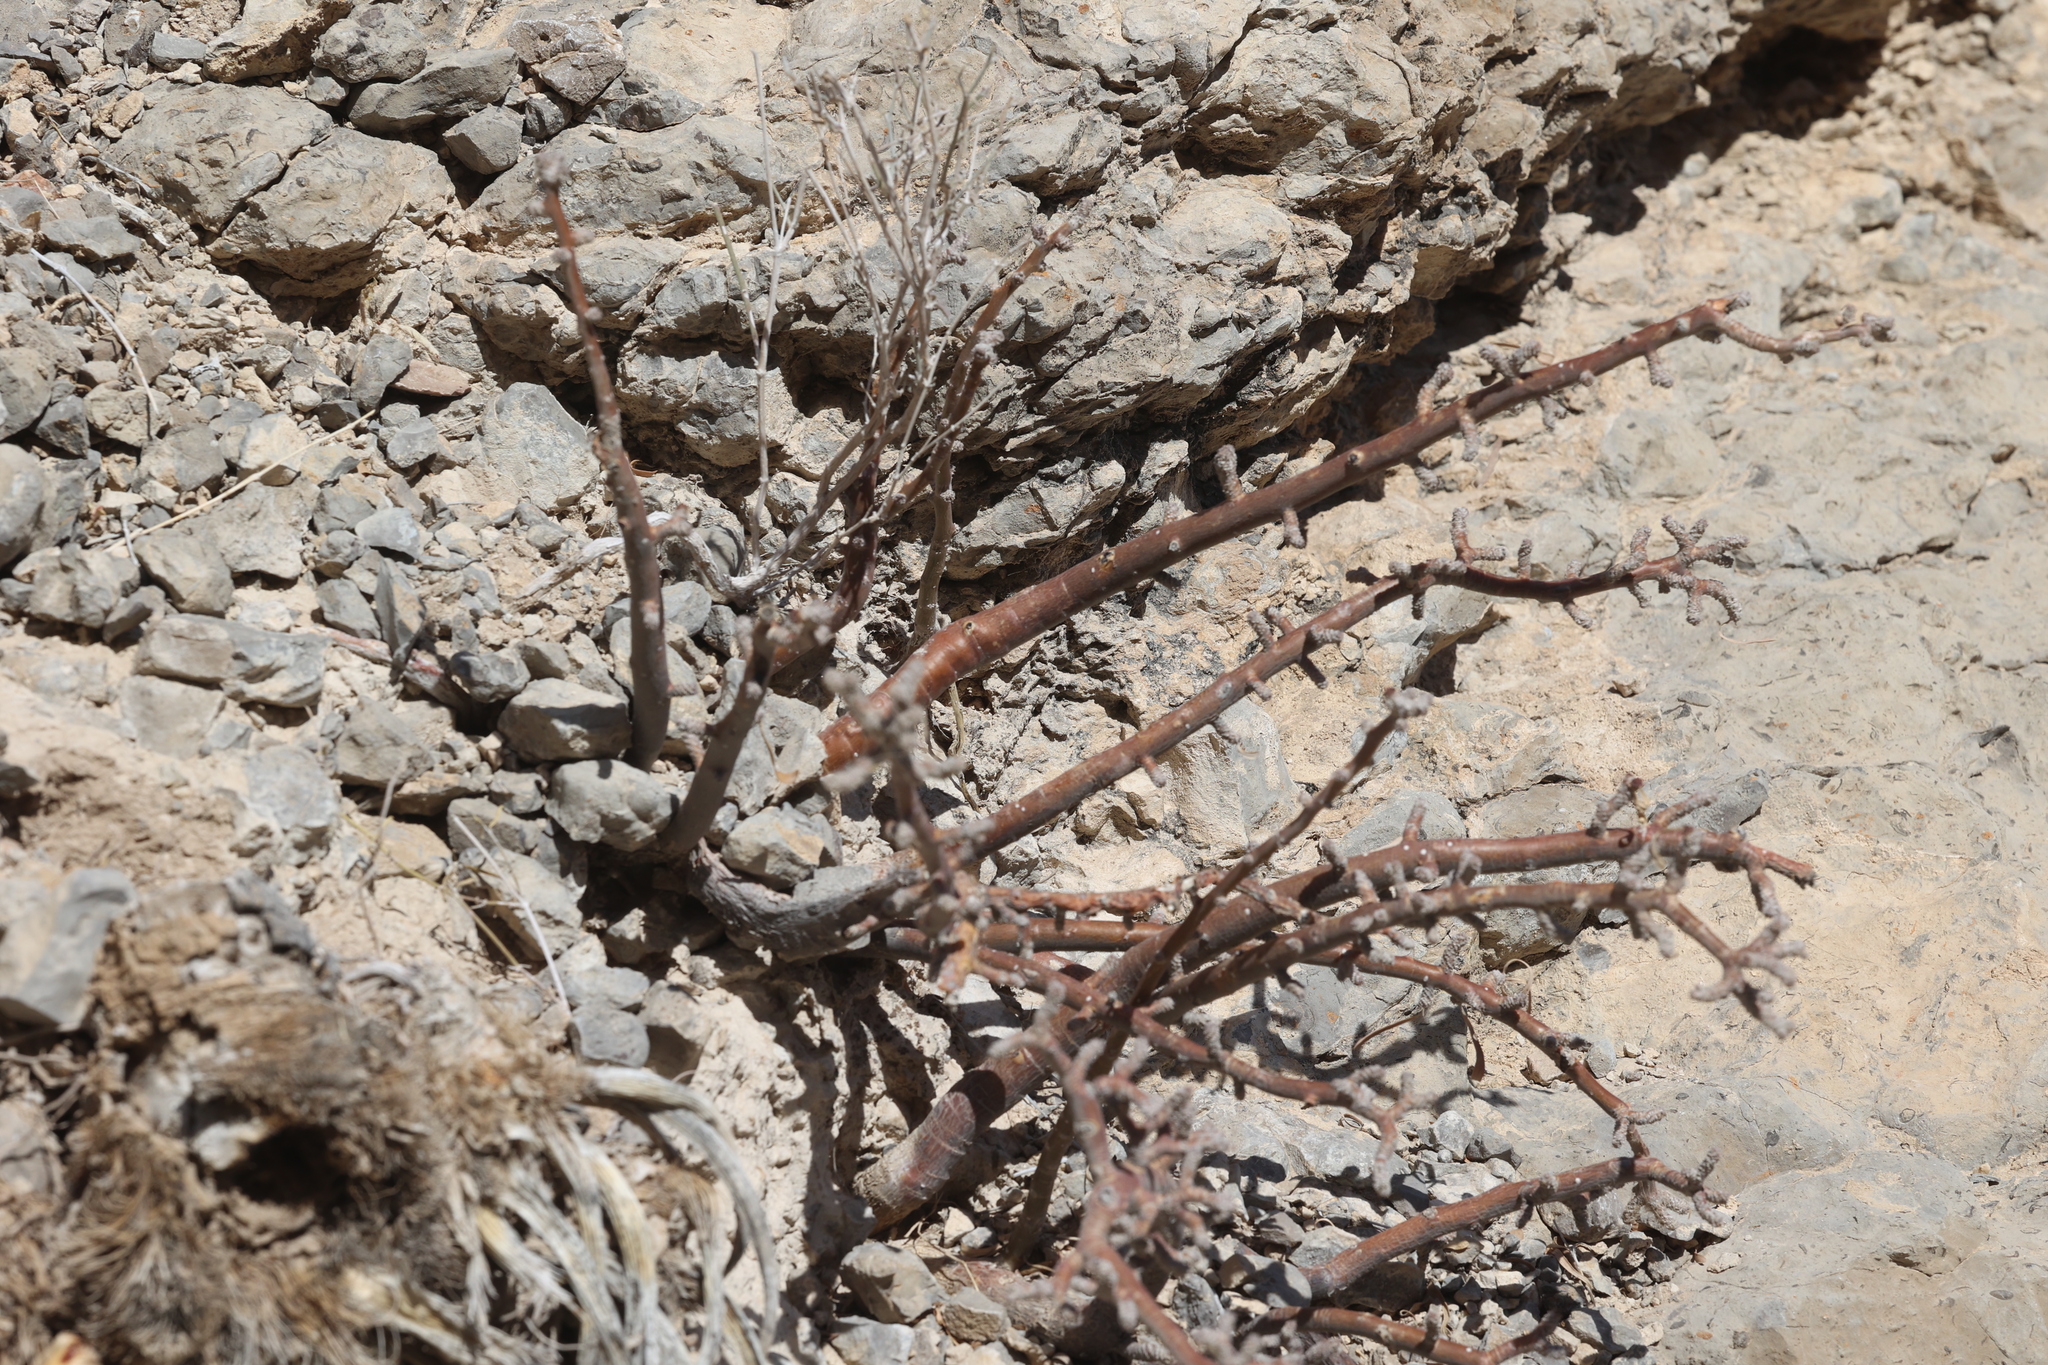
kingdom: Plantae
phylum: Tracheophyta
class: Magnoliopsida
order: Malpighiales
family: Euphorbiaceae
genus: Jatropha
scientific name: Jatropha dioica
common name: Leatherstem
